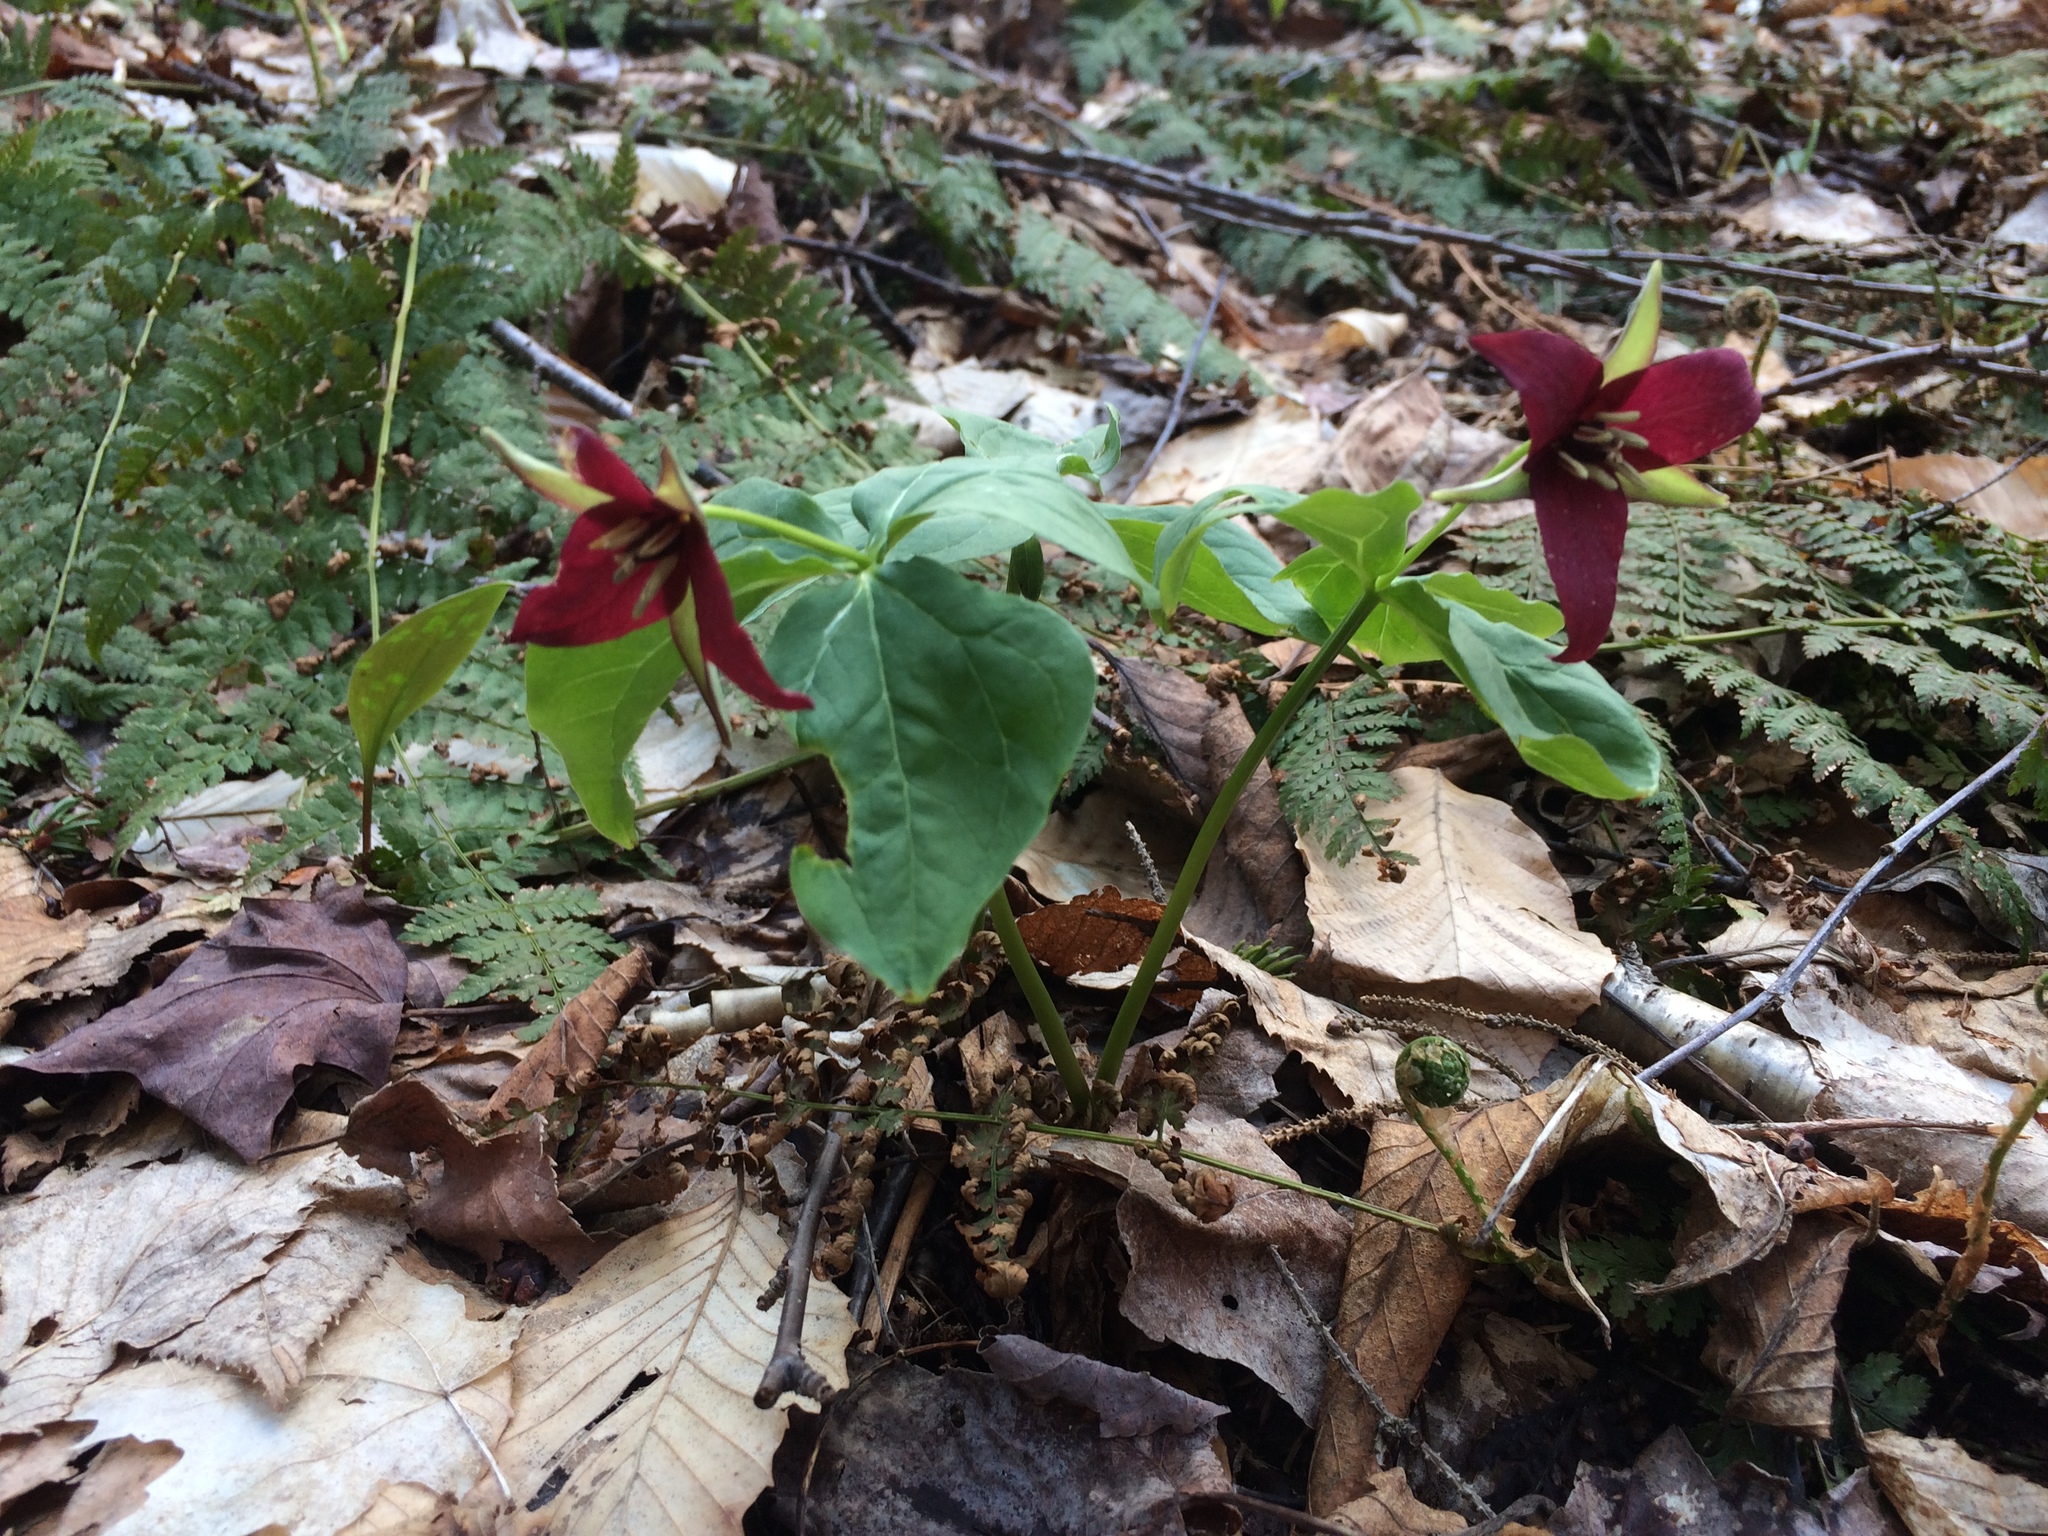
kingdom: Plantae
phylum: Tracheophyta
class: Liliopsida
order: Liliales
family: Melanthiaceae
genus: Trillium
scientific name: Trillium erectum
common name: Purple trillium
